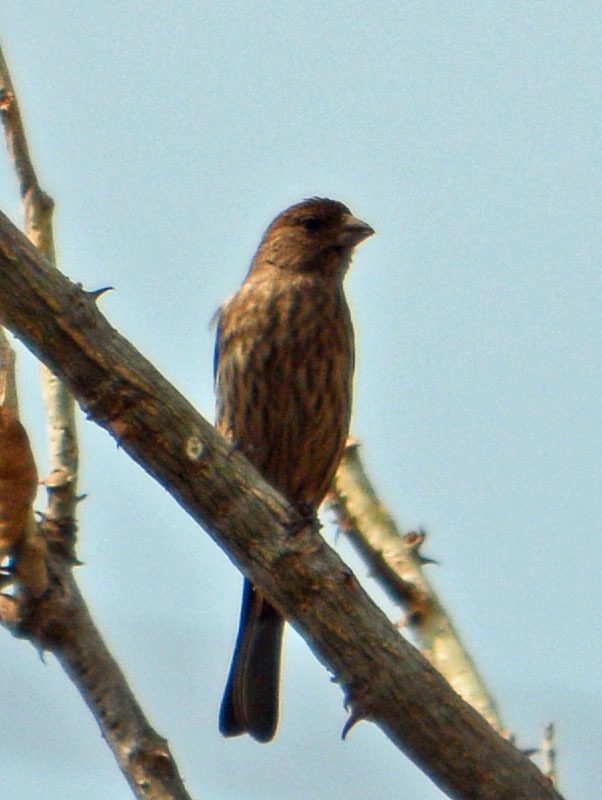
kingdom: Animalia
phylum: Chordata
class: Aves
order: Passeriformes
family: Fringillidae
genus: Haemorhous
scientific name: Haemorhous mexicanus
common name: House finch
